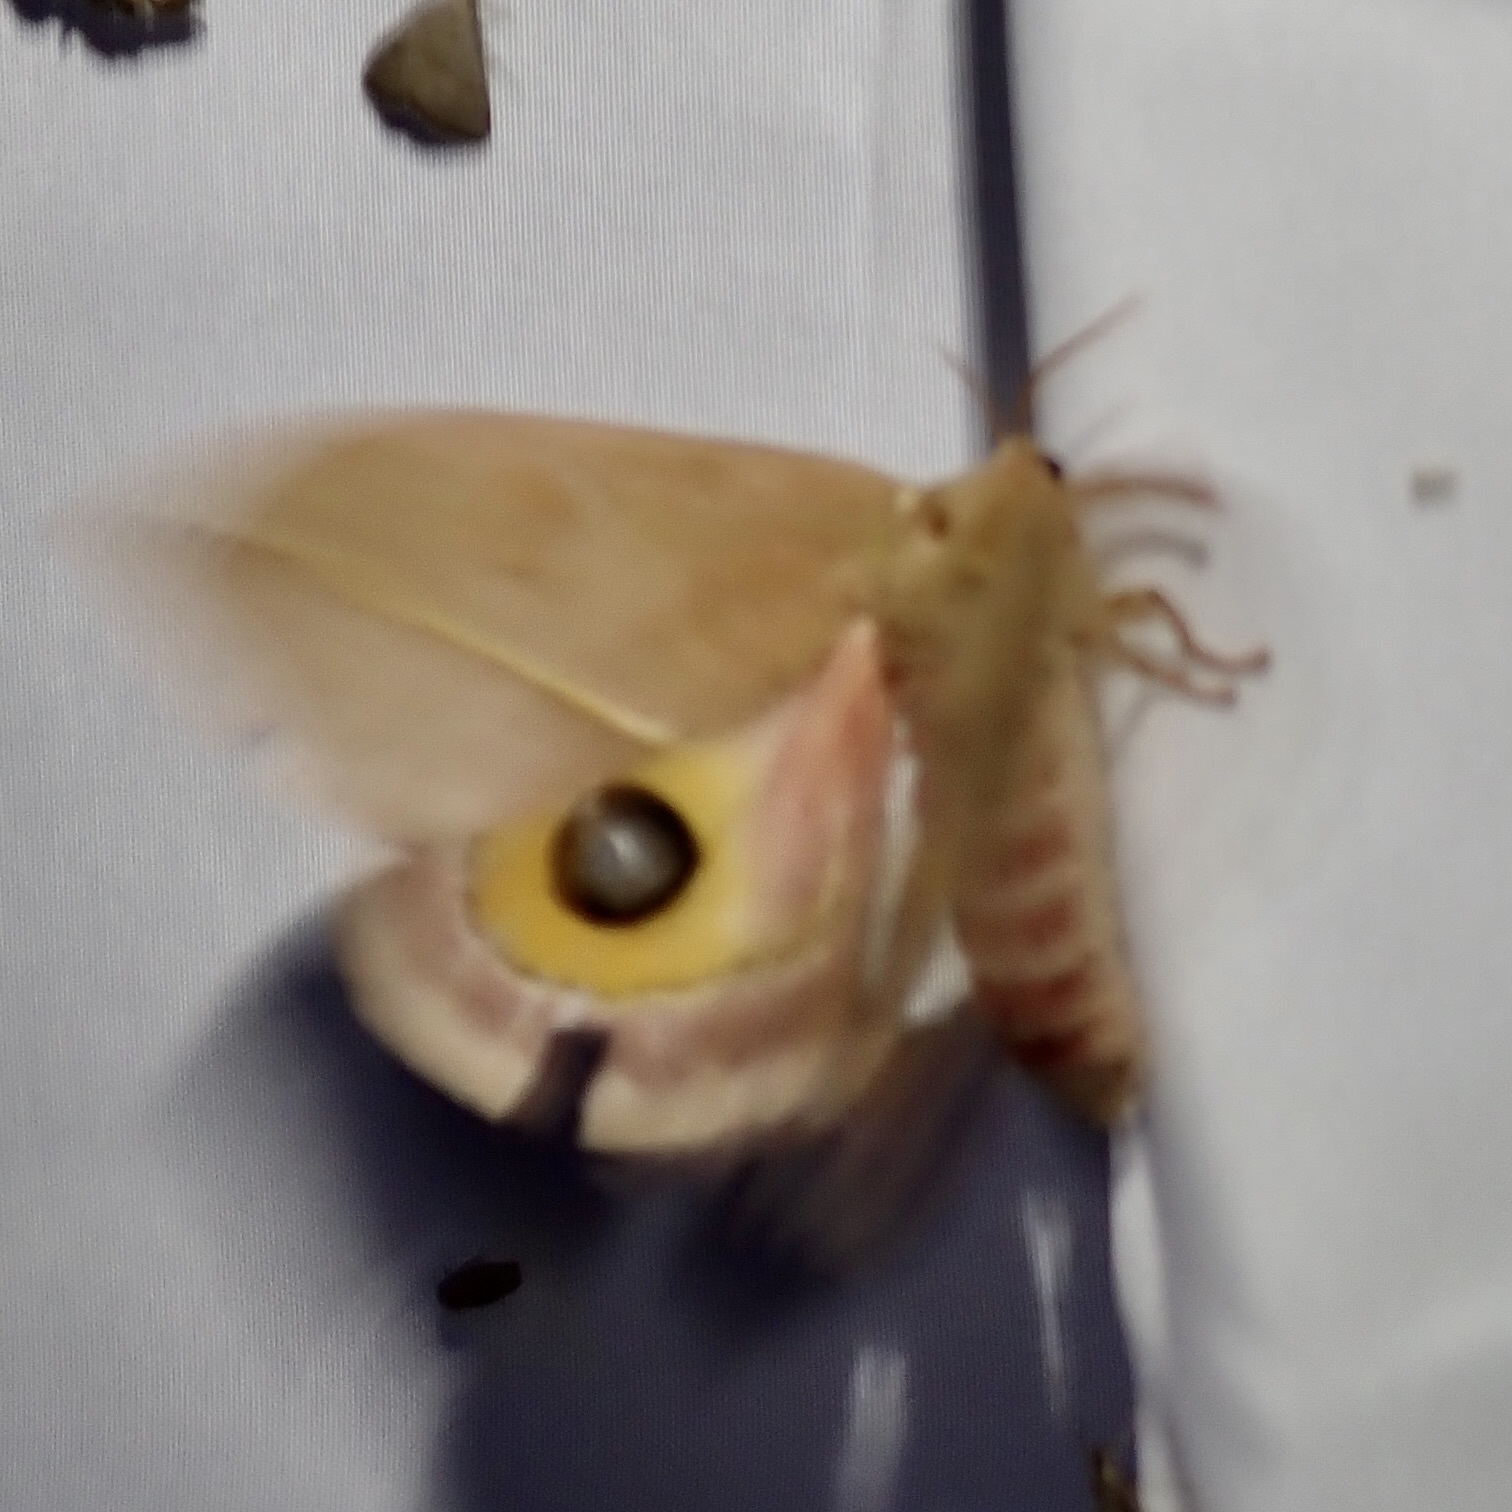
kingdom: Animalia
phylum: Arthropoda
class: Insecta
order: Lepidoptera
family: Saturniidae
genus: Automeris
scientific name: Automeris cecrops
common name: Cecrops eyed silkmoth
